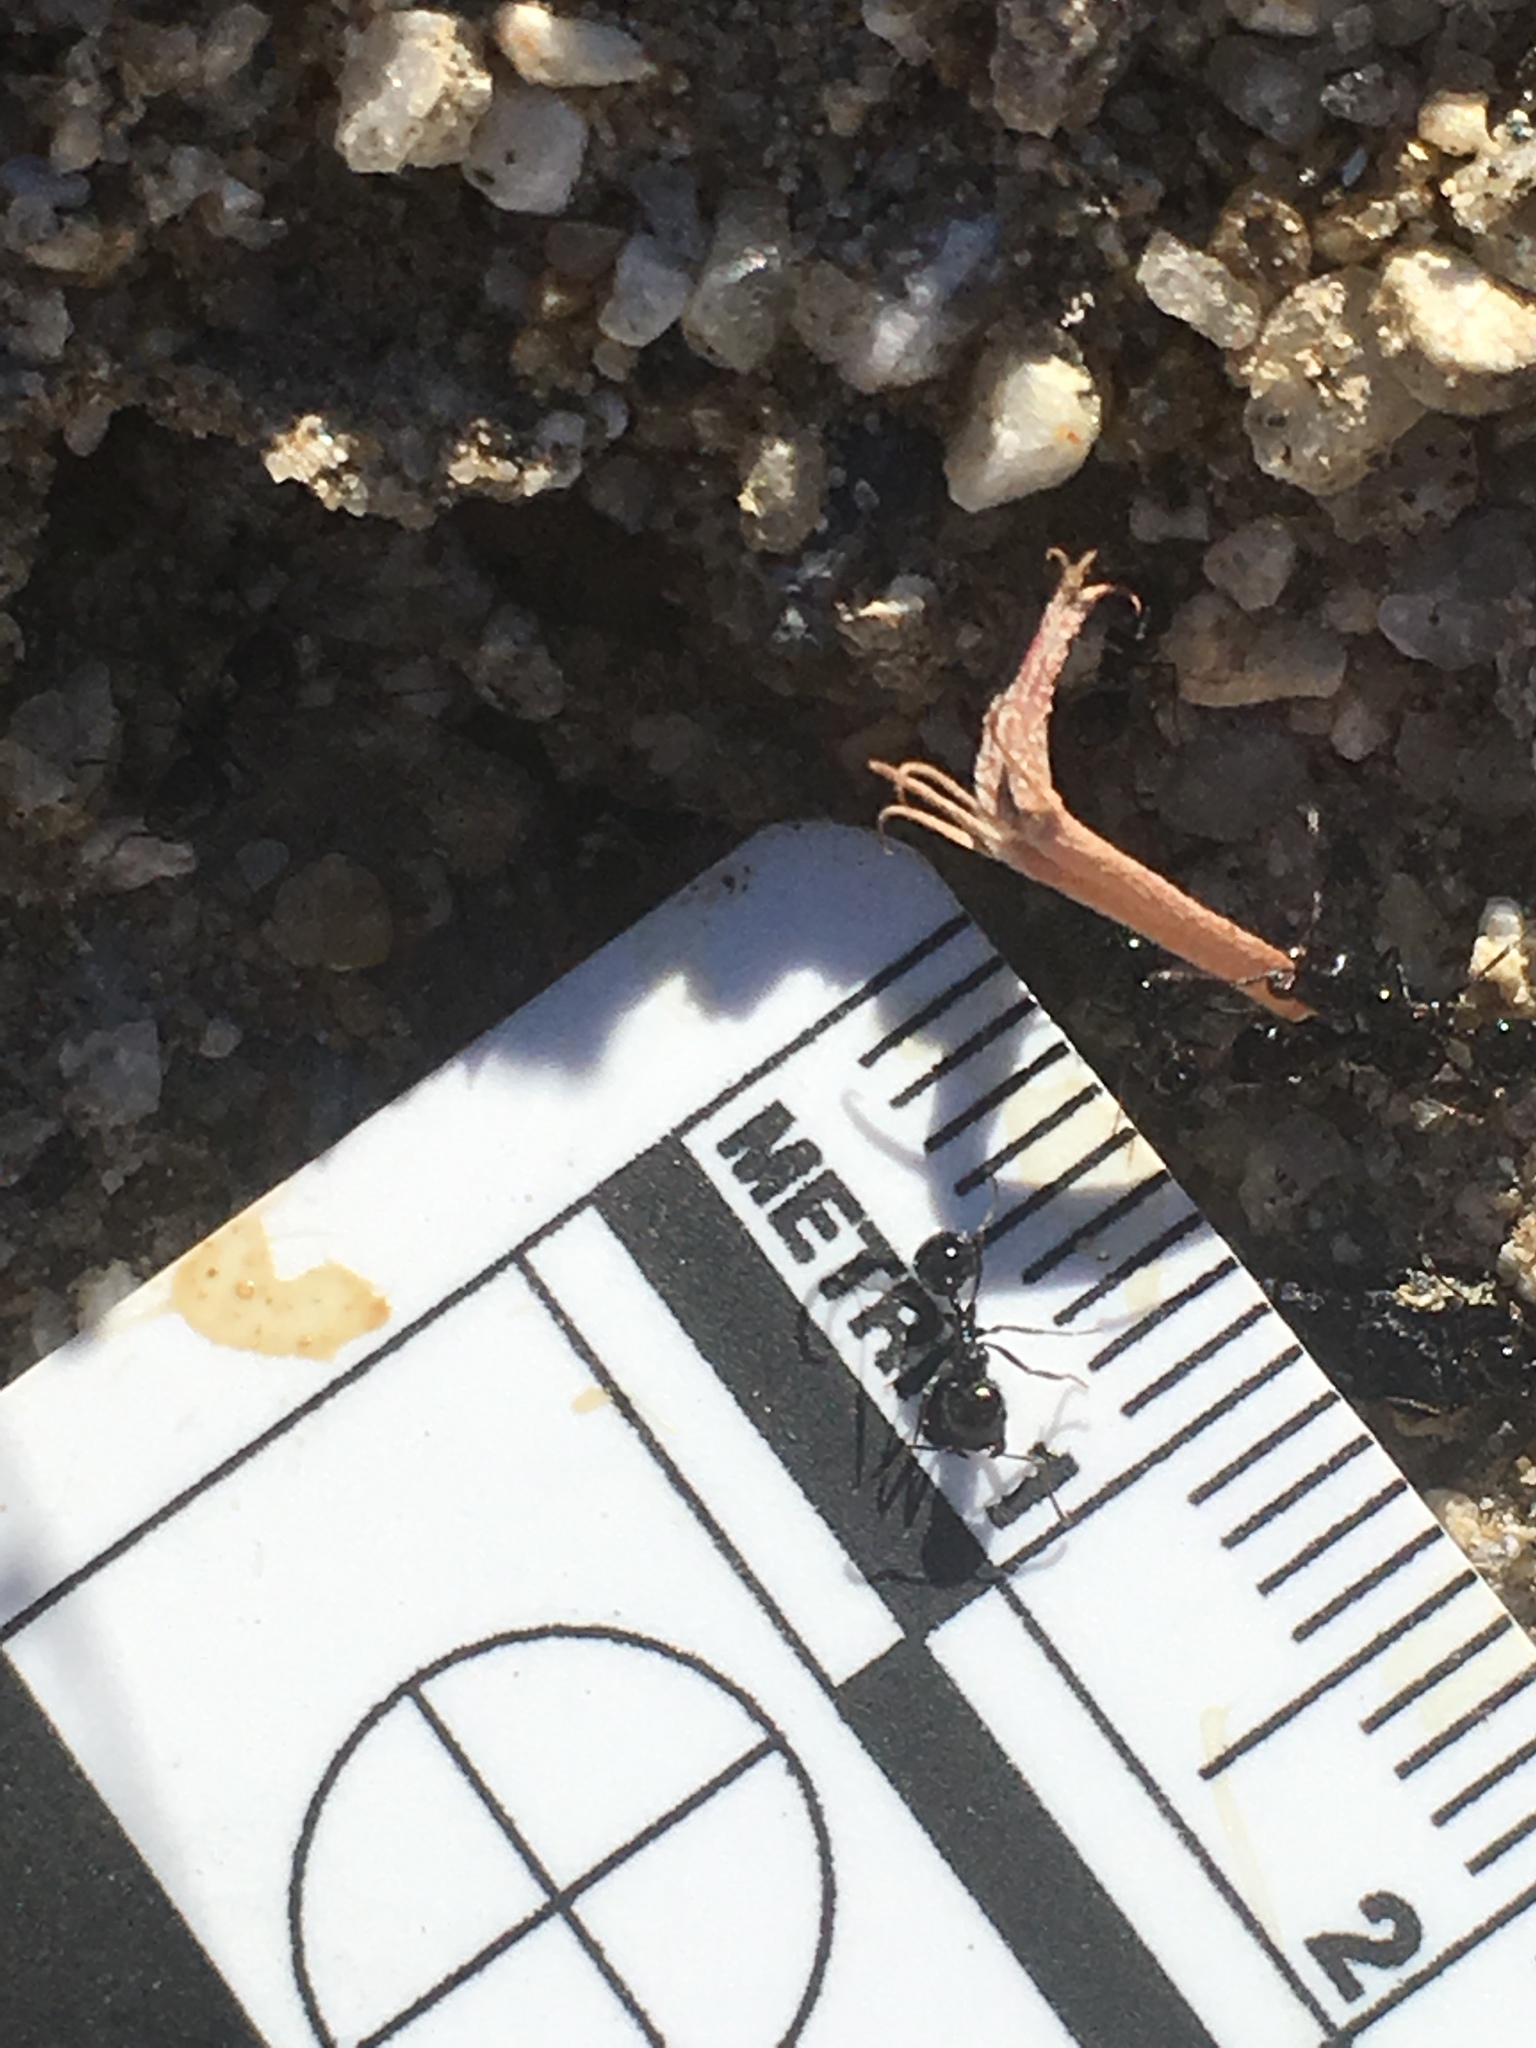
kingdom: Animalia
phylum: Arthropoda
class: Insecta
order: Hymenoptera
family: Formicidae
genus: Messor
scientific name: Messor pergandei
